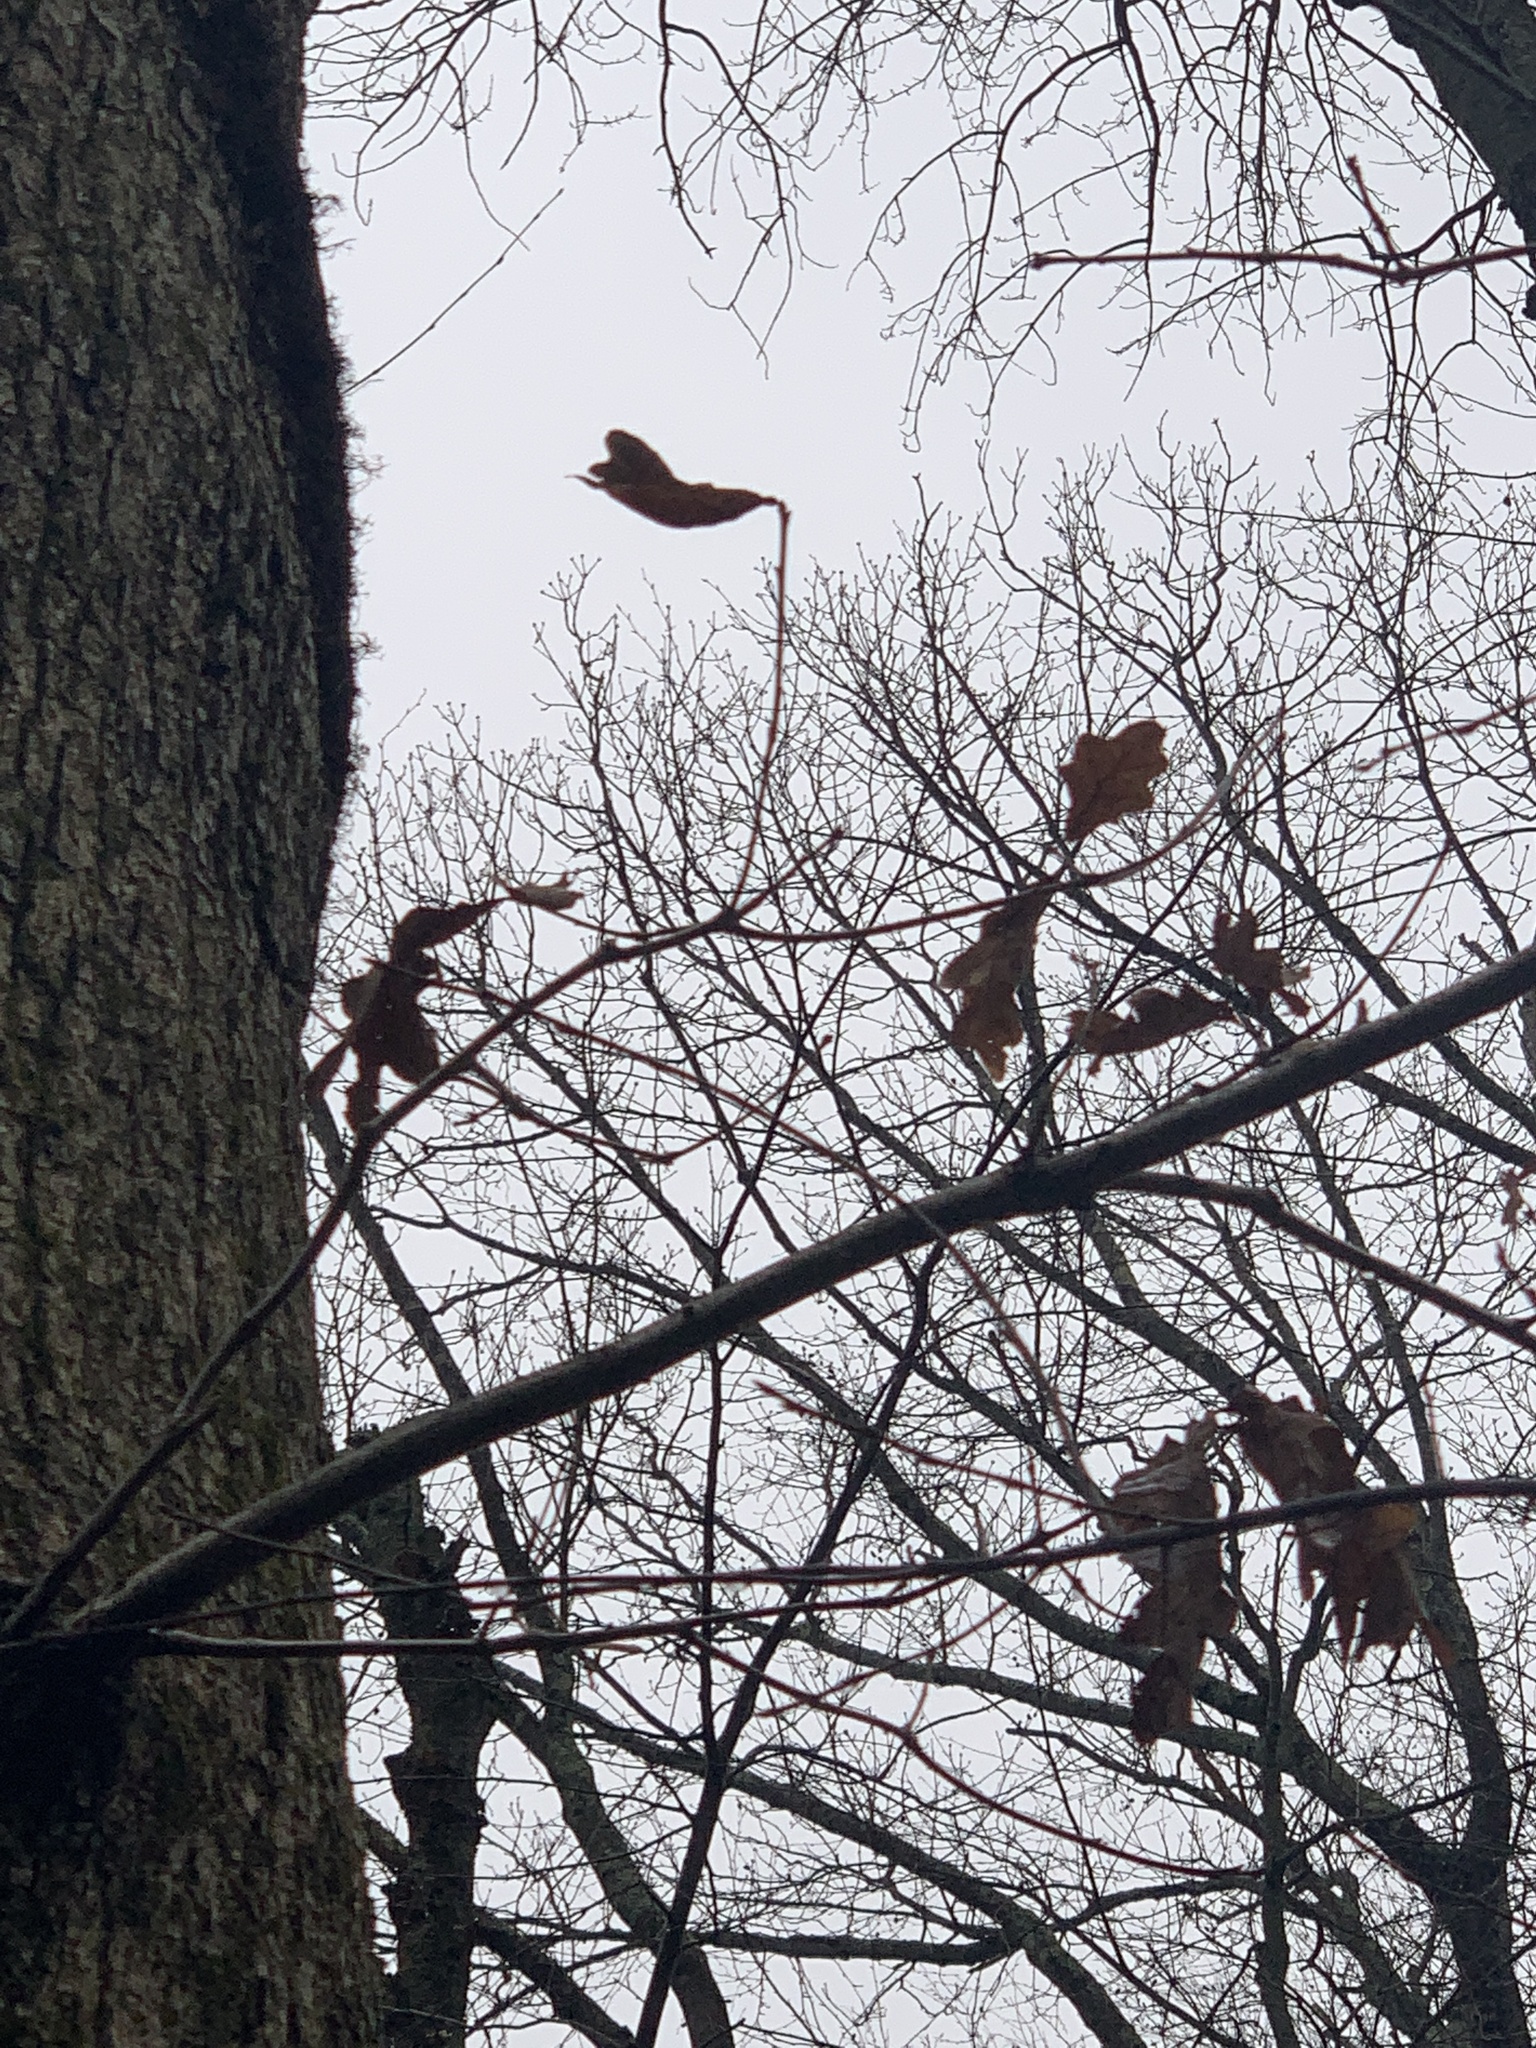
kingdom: Plantae
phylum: Tracheophyta
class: Magnoliopsida
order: Fagales
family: Fagaceae
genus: Quercus
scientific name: Quercus alba
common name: White oak
